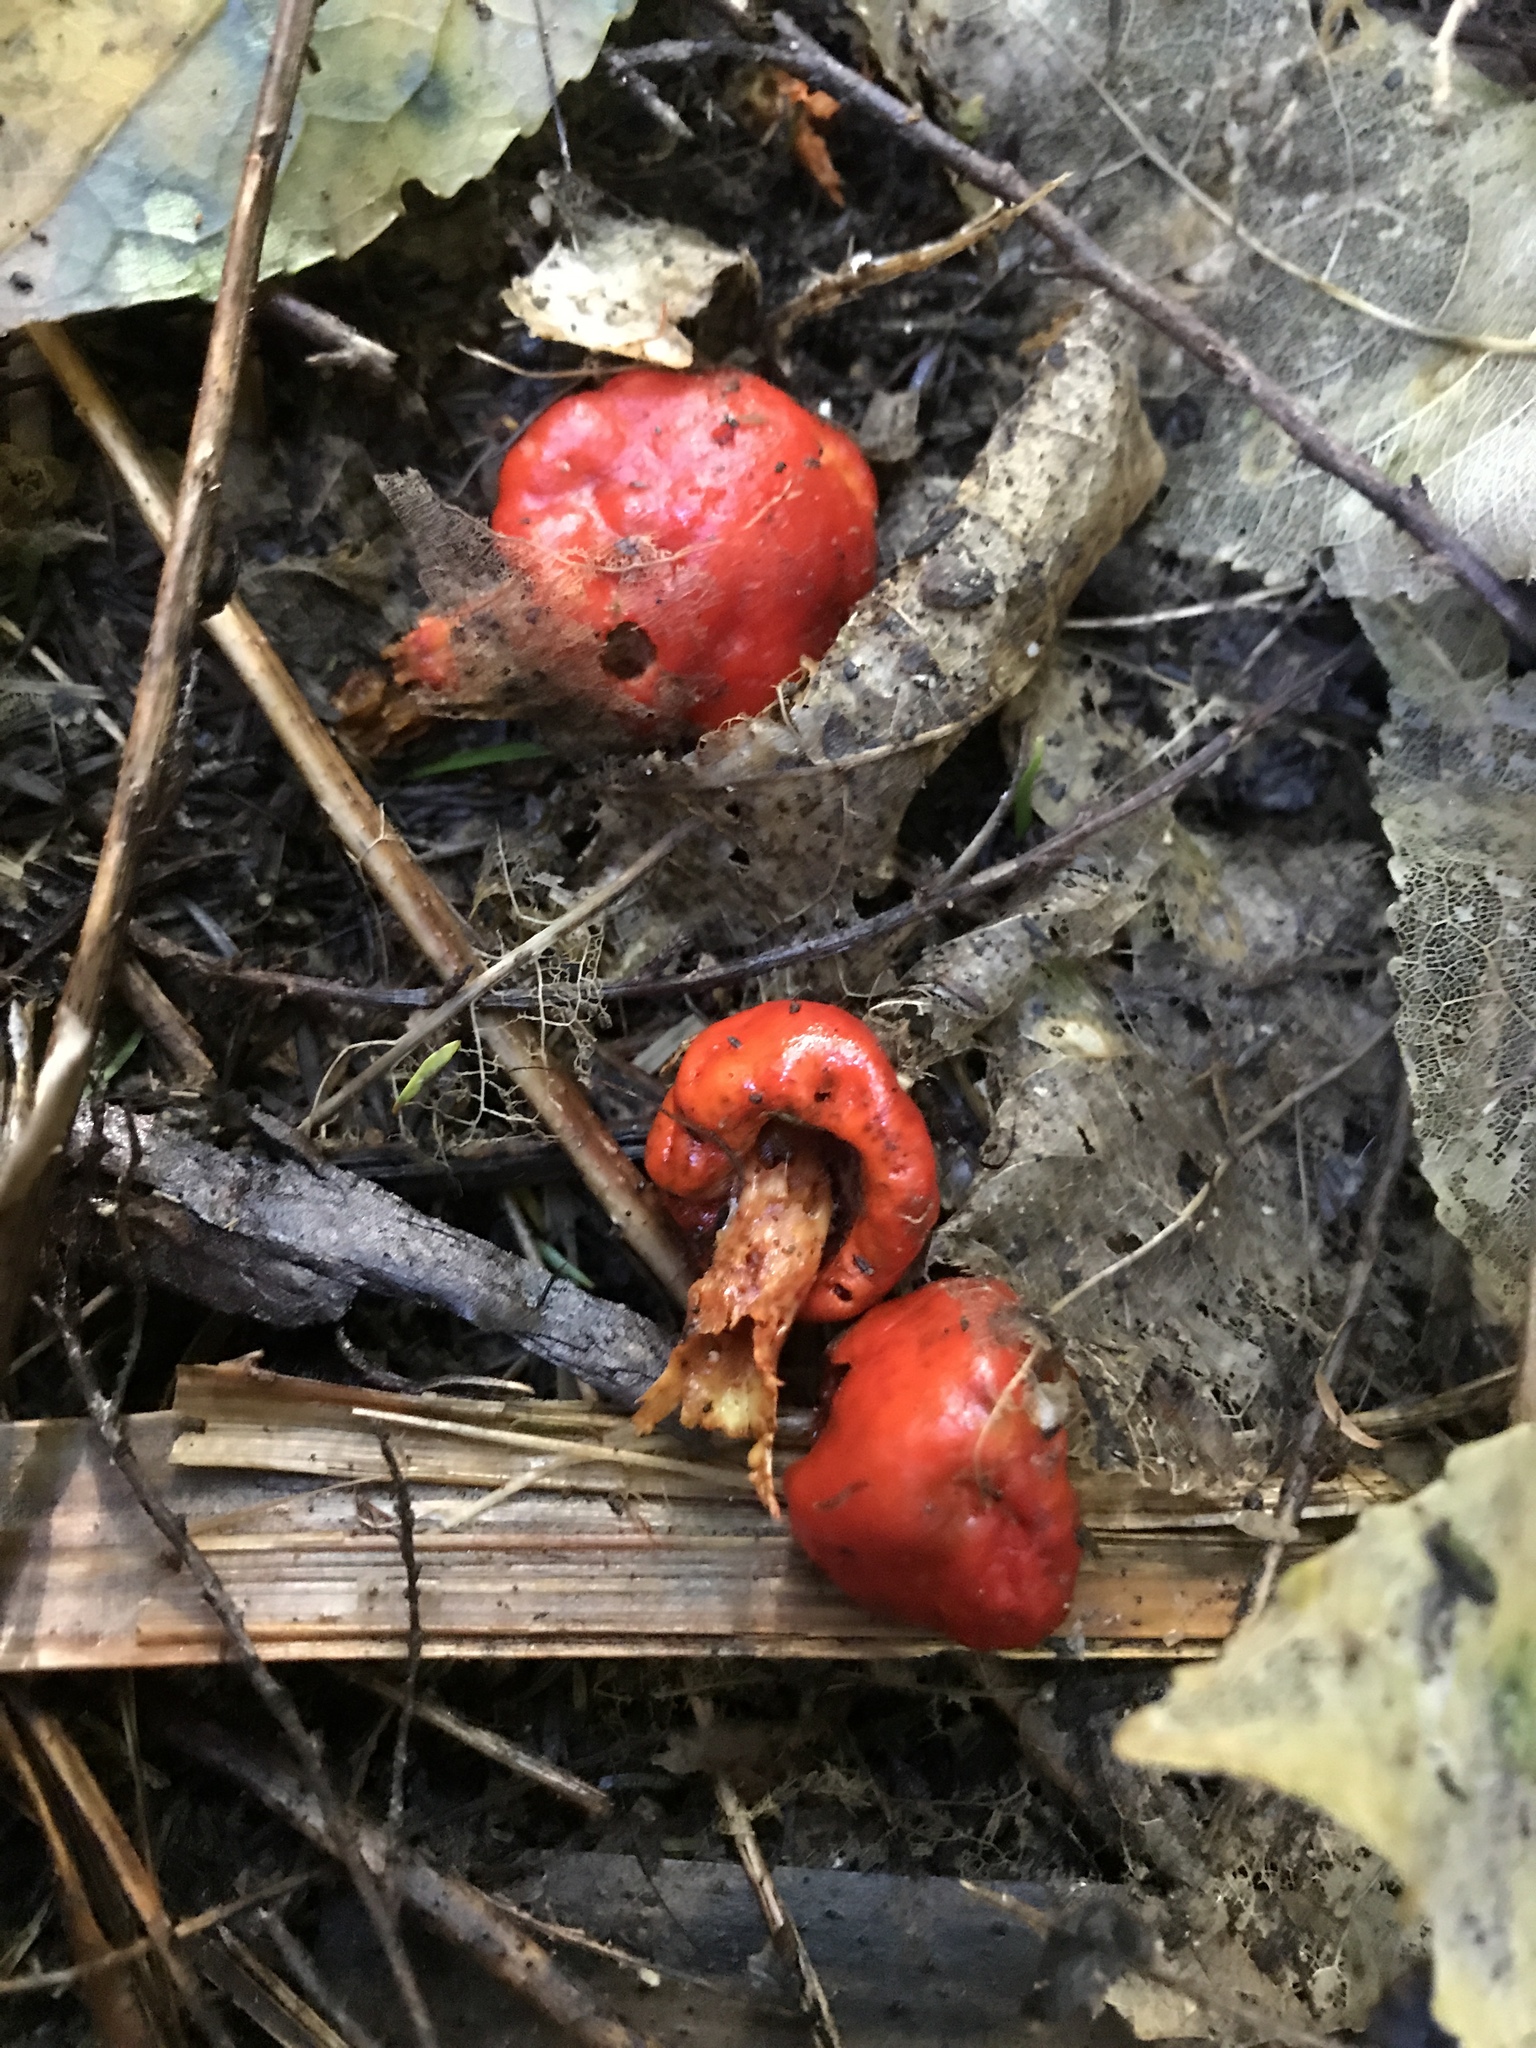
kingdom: Fungi
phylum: Basidiomycota
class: Agaricomycetes
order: Agaricales
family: Strophariaceae
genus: Leratiomyces
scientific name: Leratiomyces erythrocephalus
